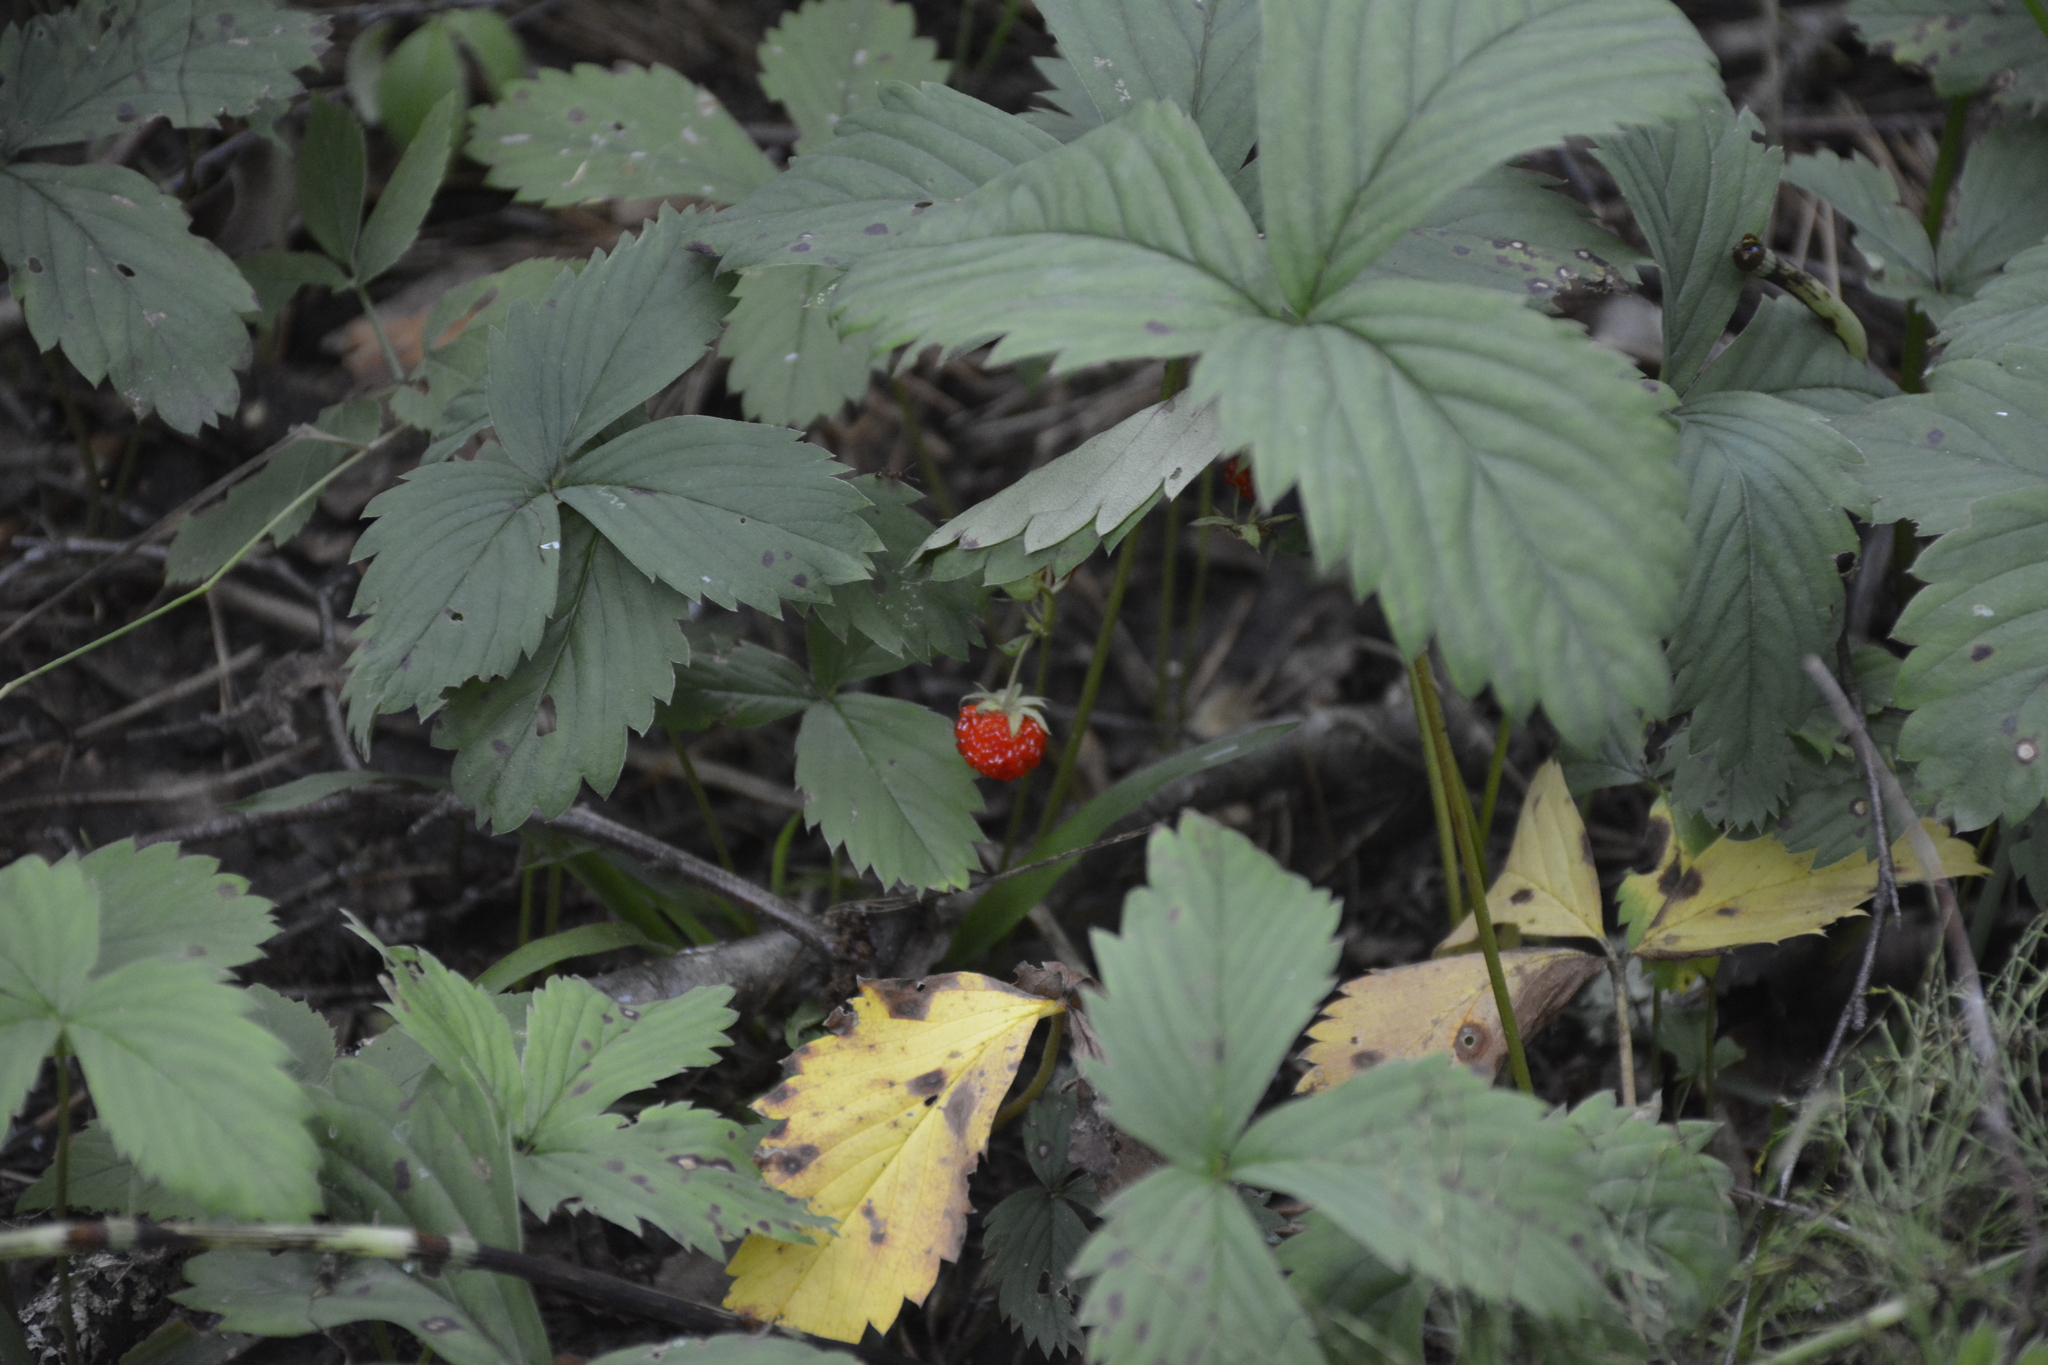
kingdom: Plantae
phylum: Tracheophyta
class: Magnoliopsida
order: Rosales
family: Rosaceae
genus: Fragaria
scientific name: Fragaria ananassa
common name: Garden strawberry
